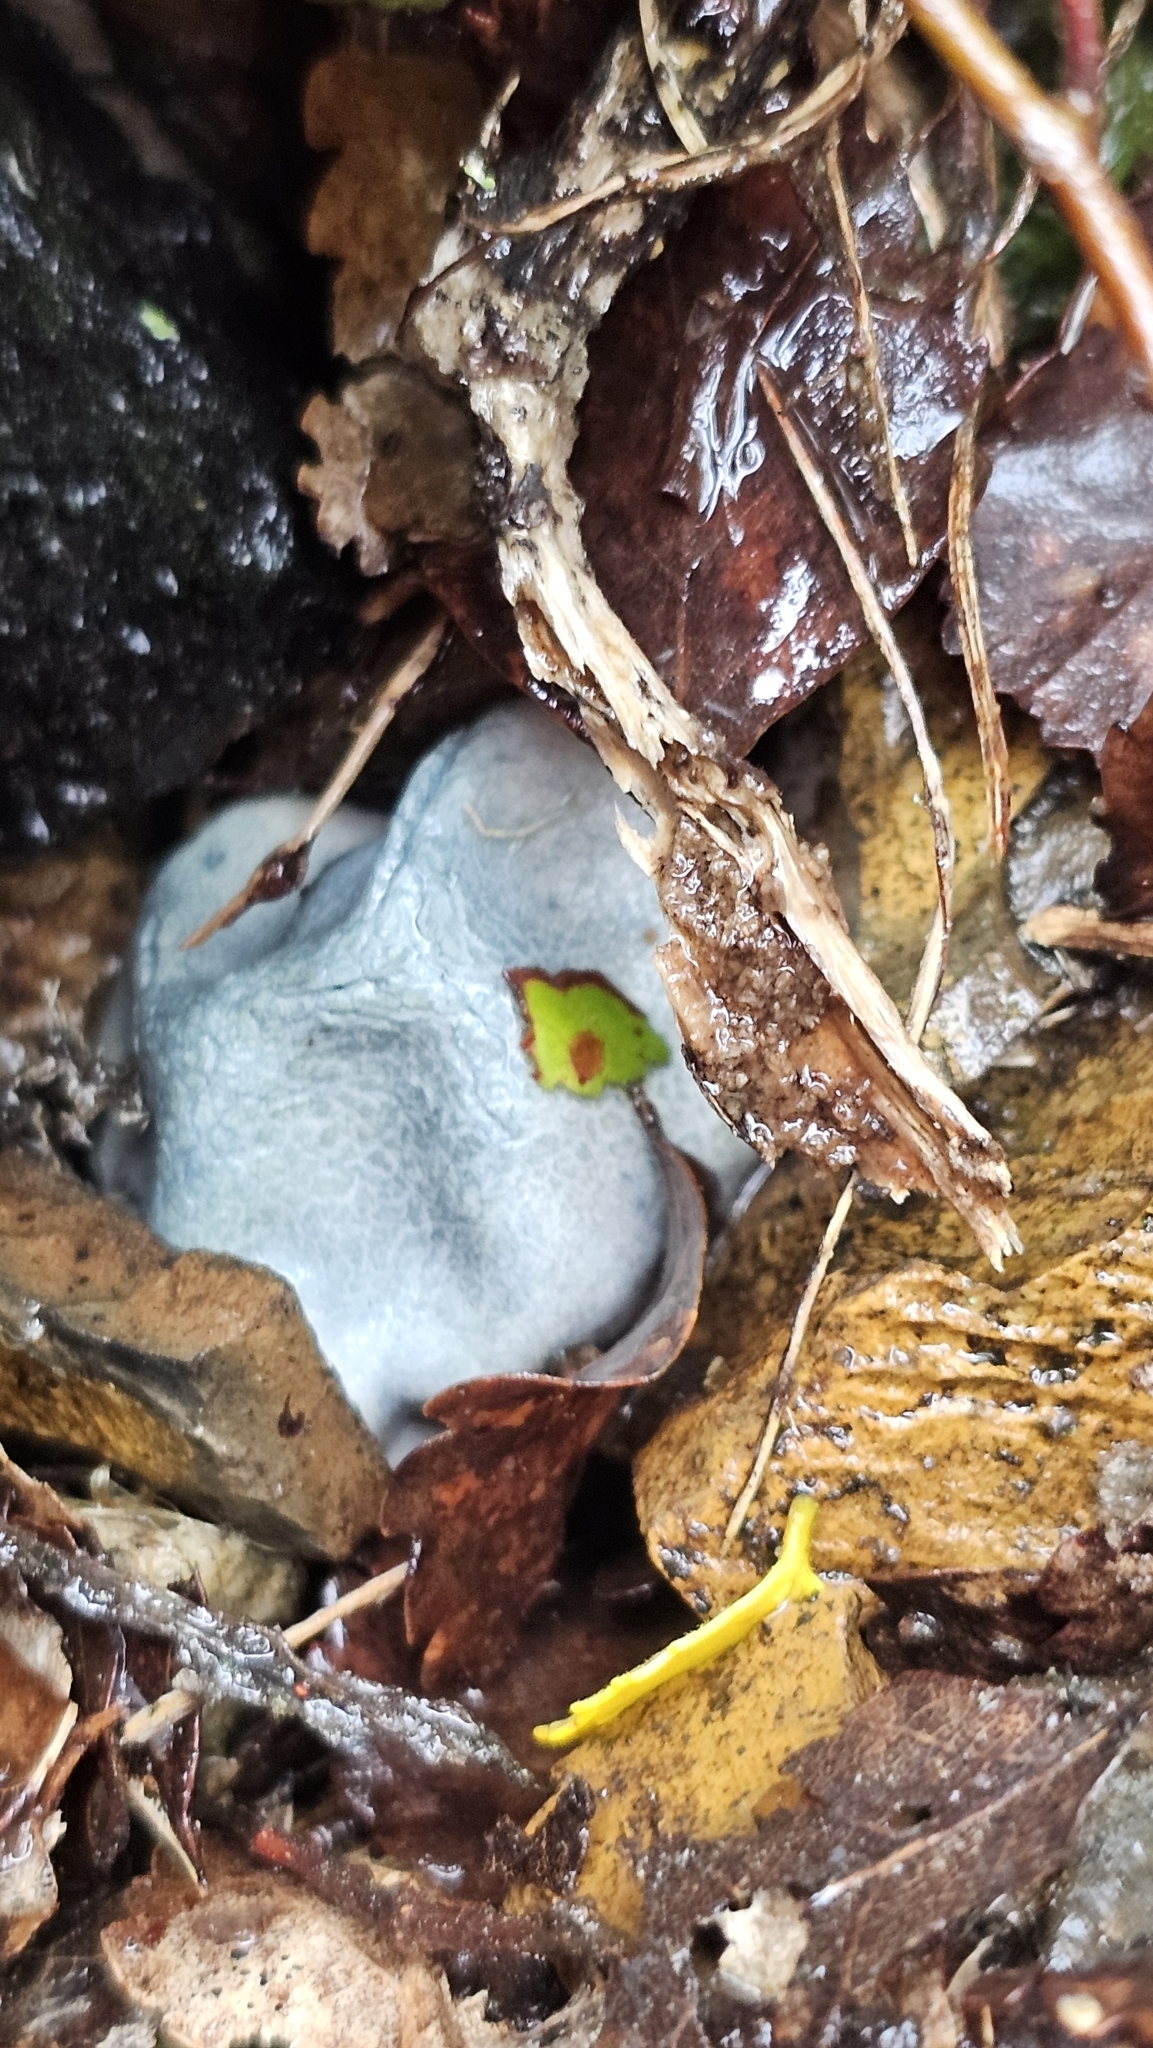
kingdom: Fungi
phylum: Basidiomycota
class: Agaricomycetes
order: Boletales
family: Boletaceae
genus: Leccinum
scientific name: Leccinum pachyderme
